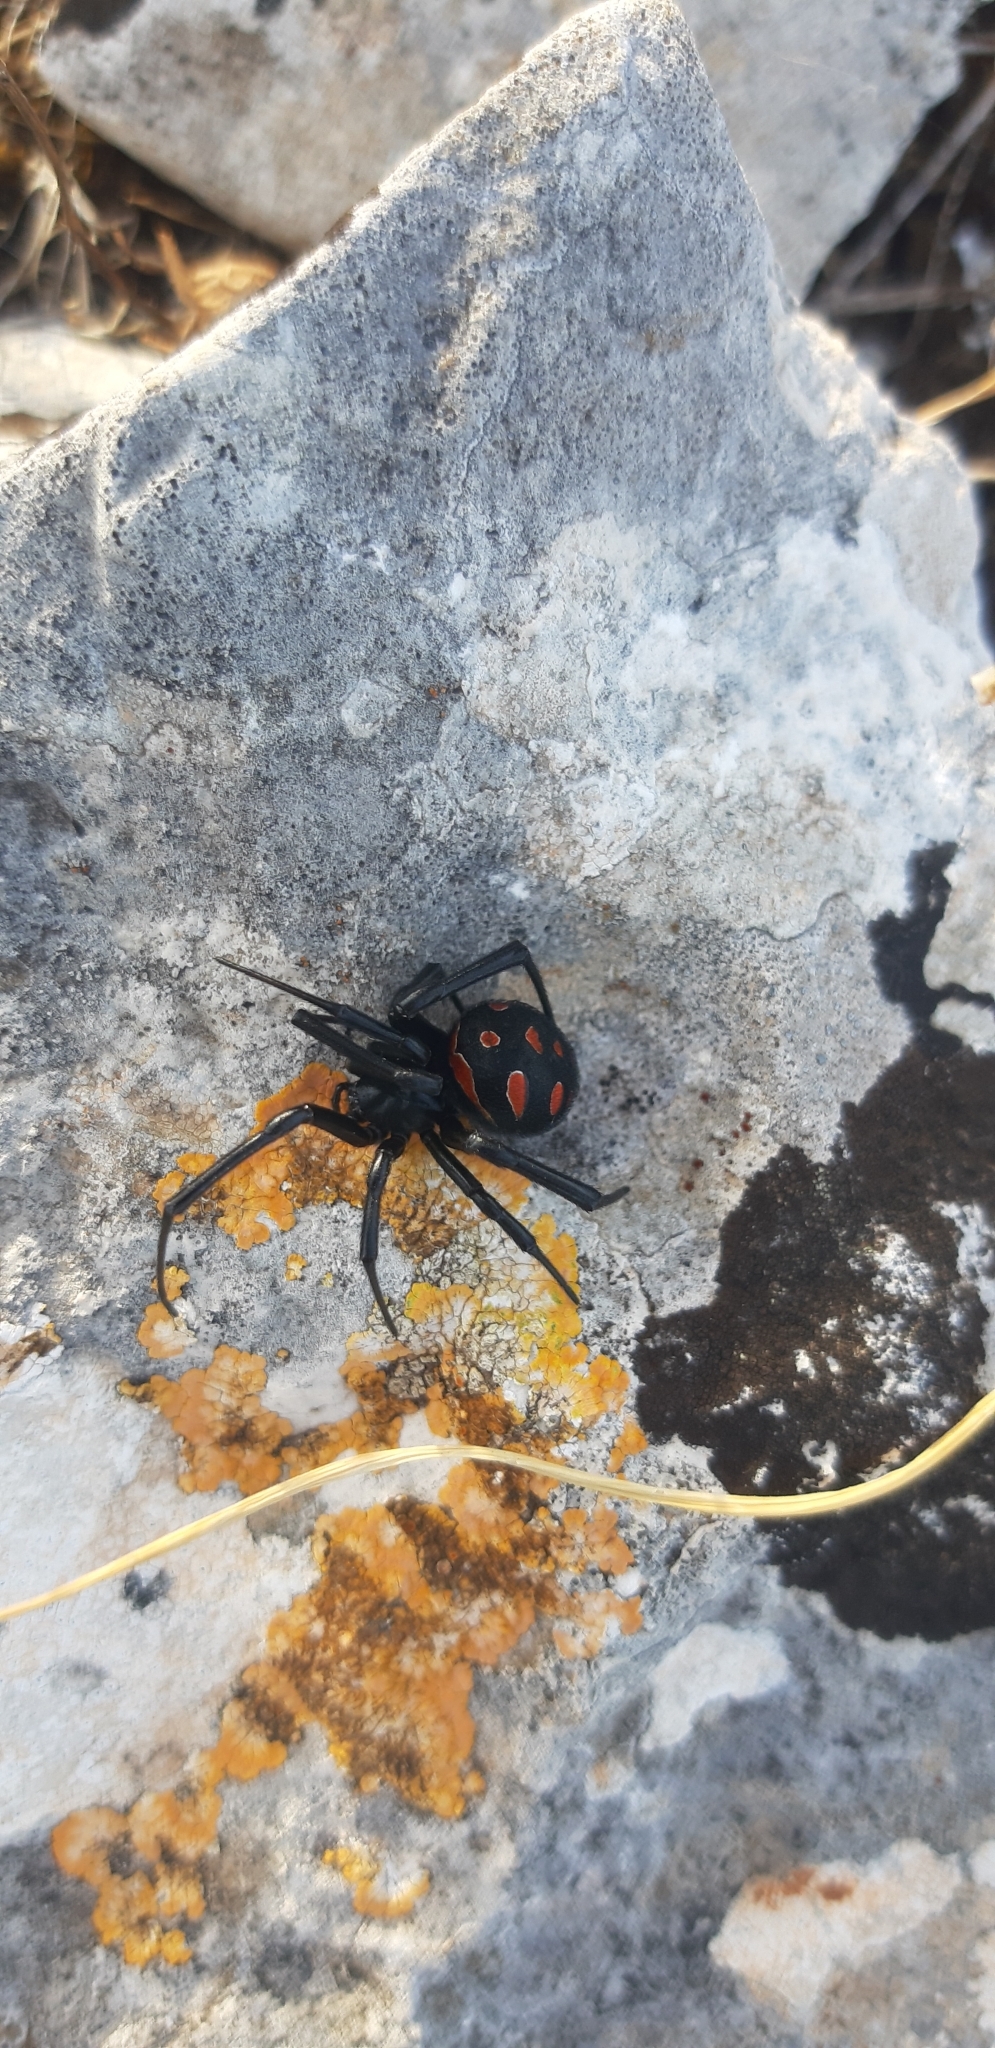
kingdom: Animalia
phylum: Arthropoda
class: Arachnida
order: Araneae
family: Theridiidae
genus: Latrodectus
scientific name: Latrodectus tredecimguttatus
